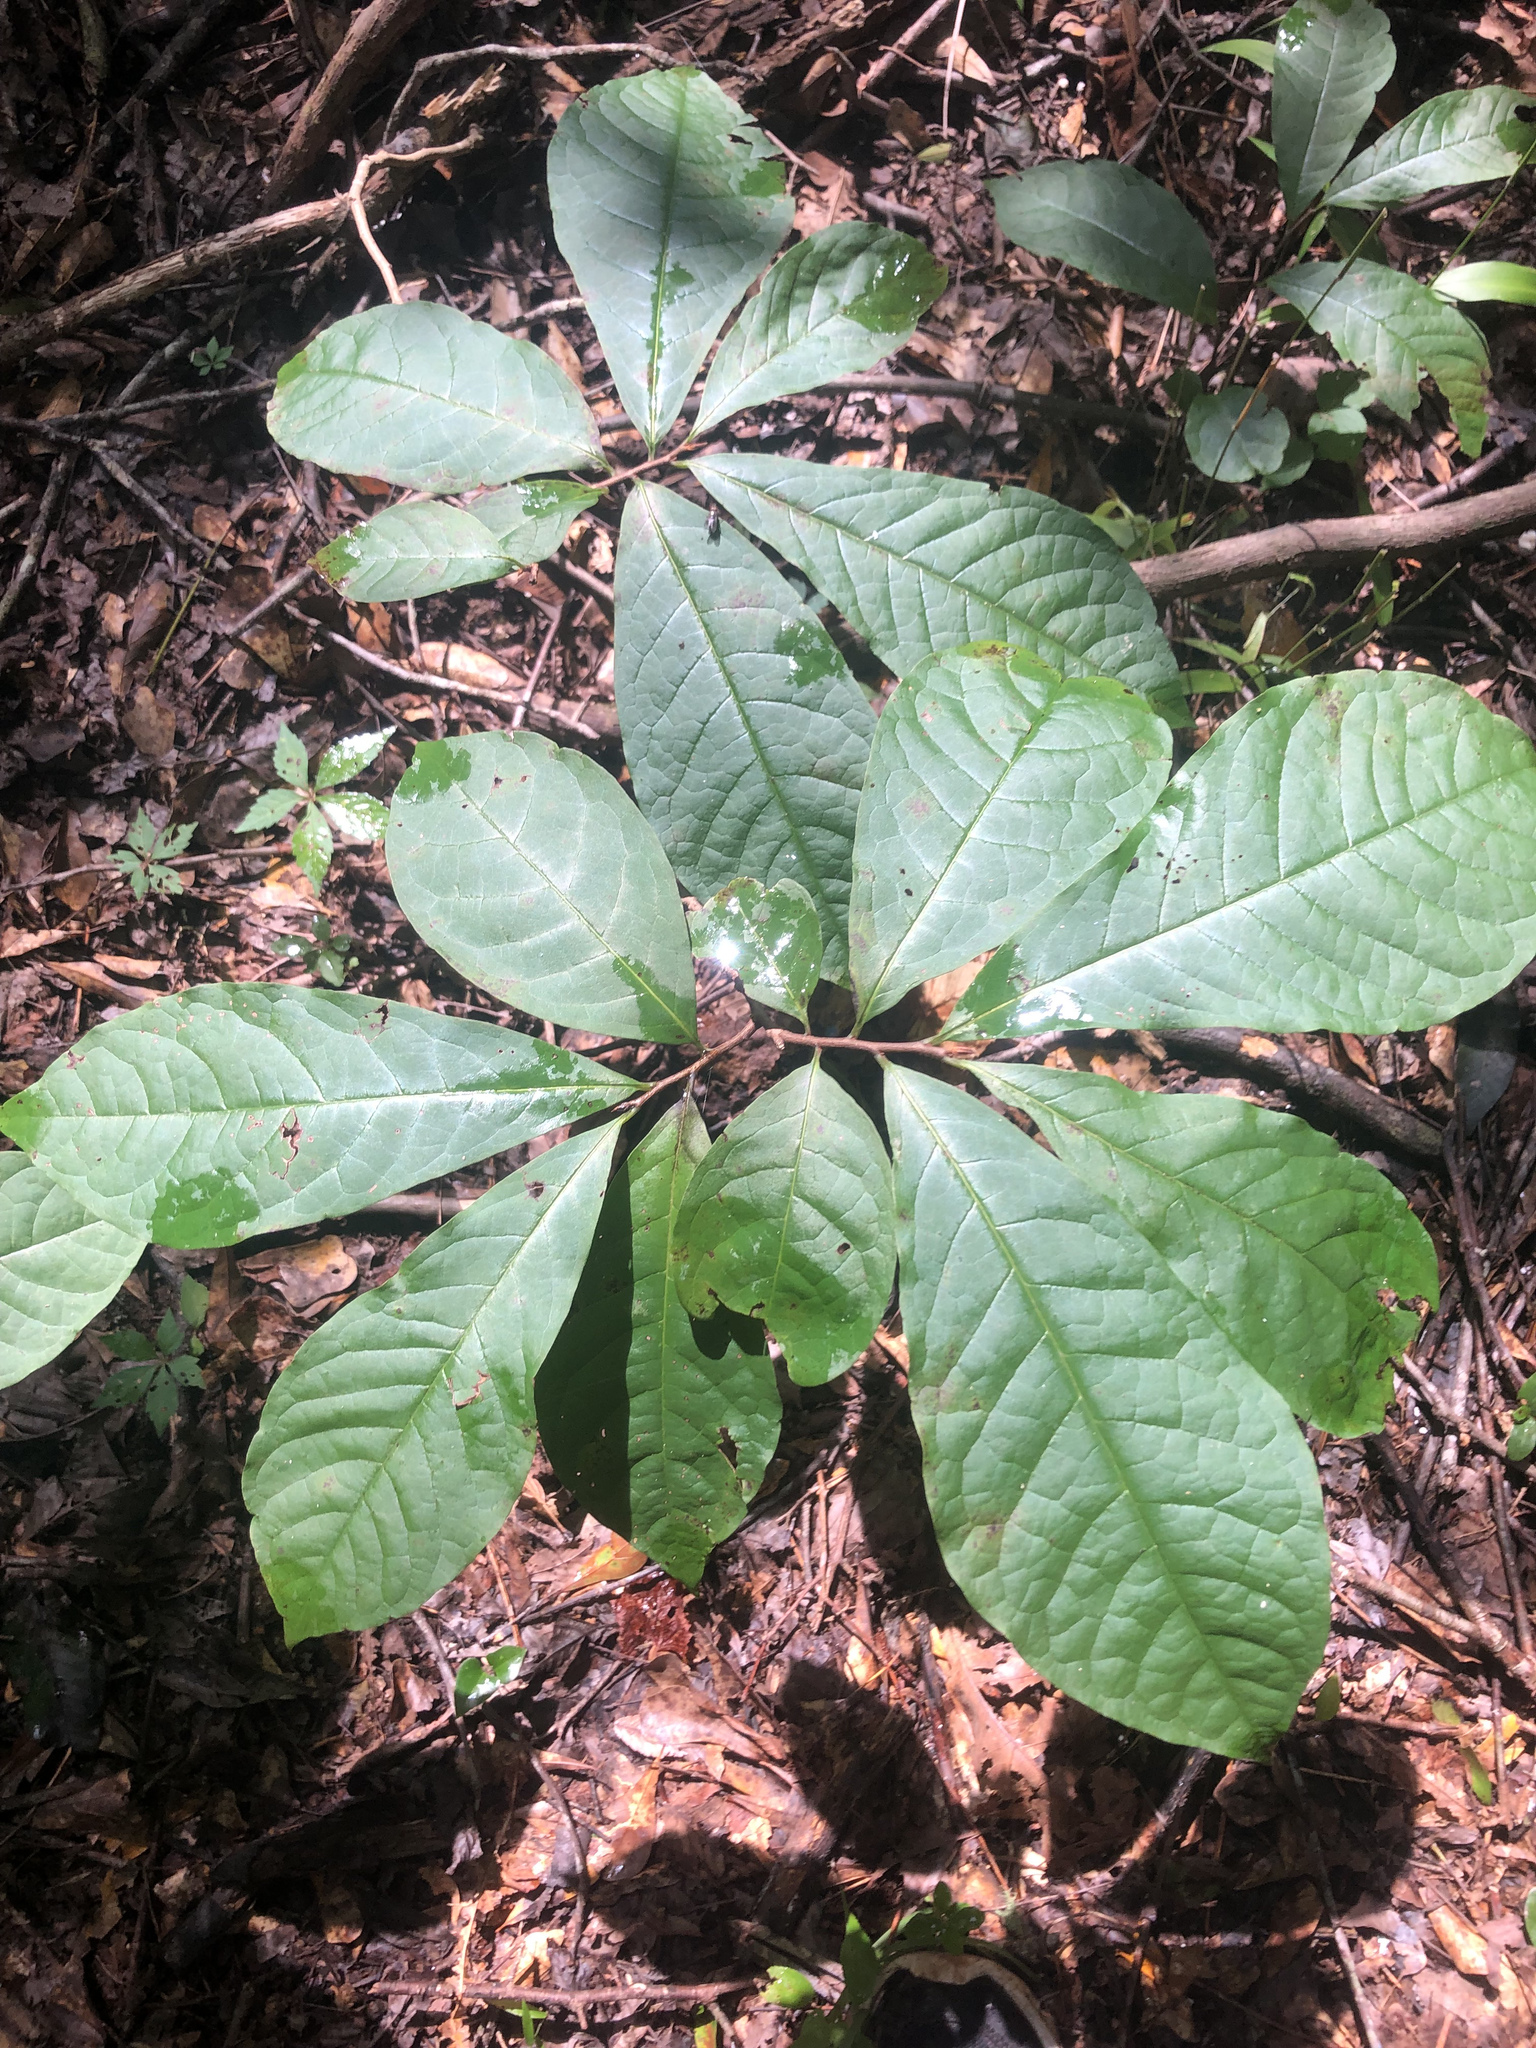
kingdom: Plantae
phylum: Tracheophyta
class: Magnoliopsida
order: Magnoliales
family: Annonaceae
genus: Asimina
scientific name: Asimina triloba
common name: Dog-banana
